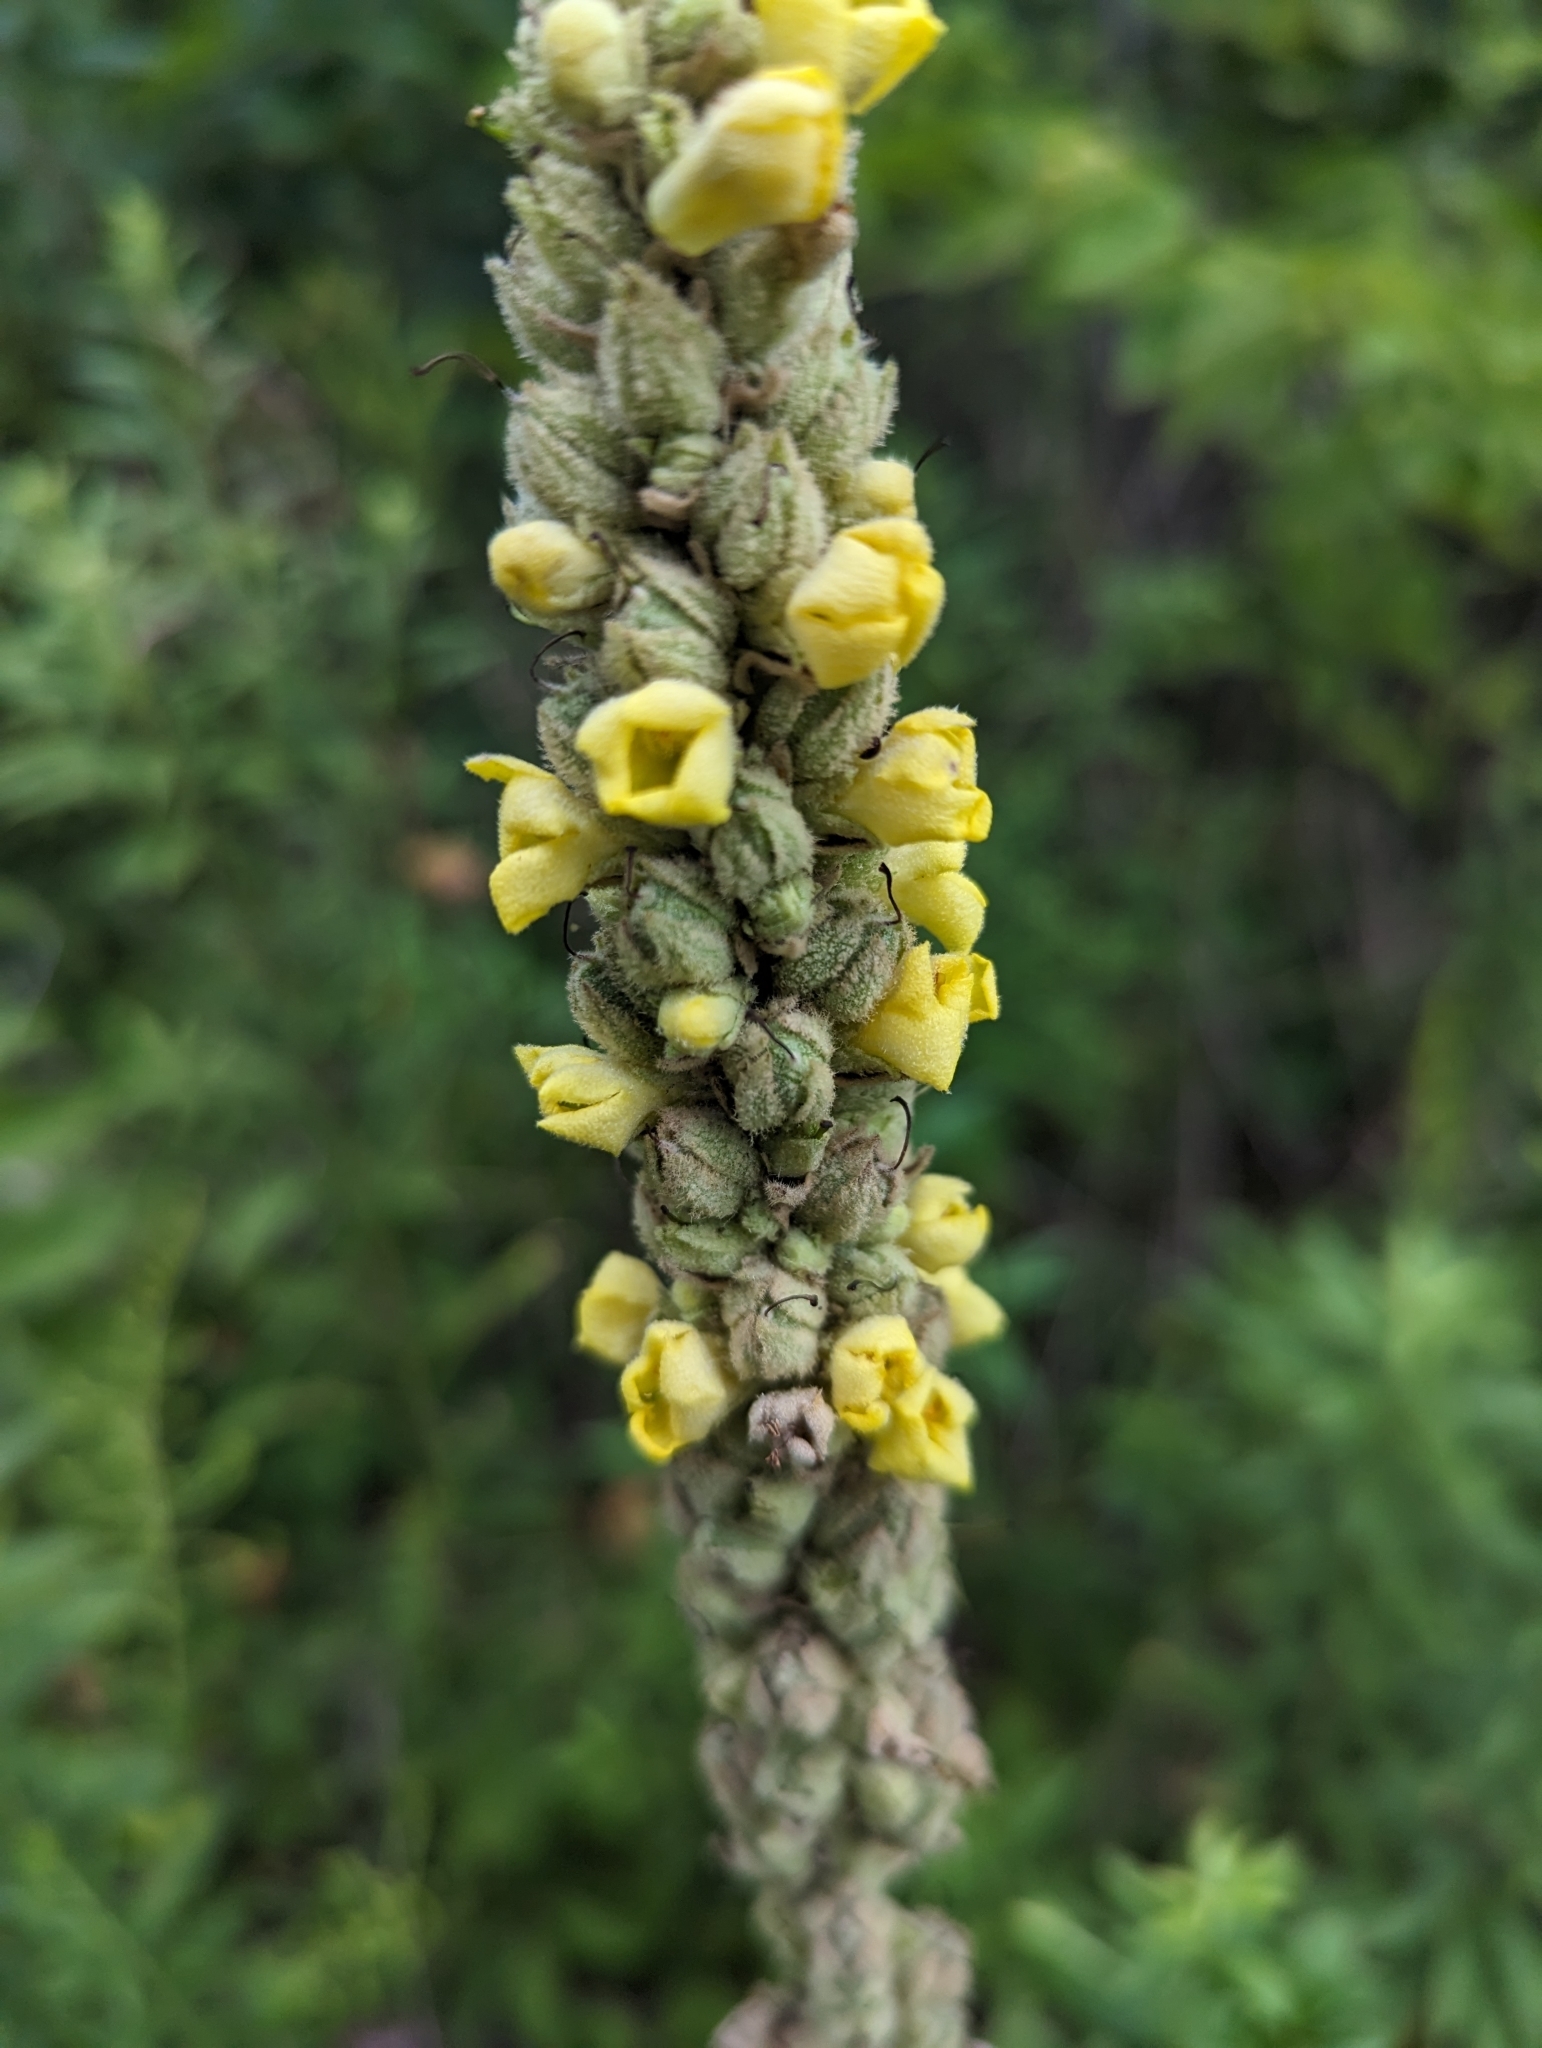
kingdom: Plantae
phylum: Tracheophyta
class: Magnoliopsida
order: Lamiales
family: Scrophulariaceae
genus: Verbascum
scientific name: Verbascum thapsus
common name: Common mullein
